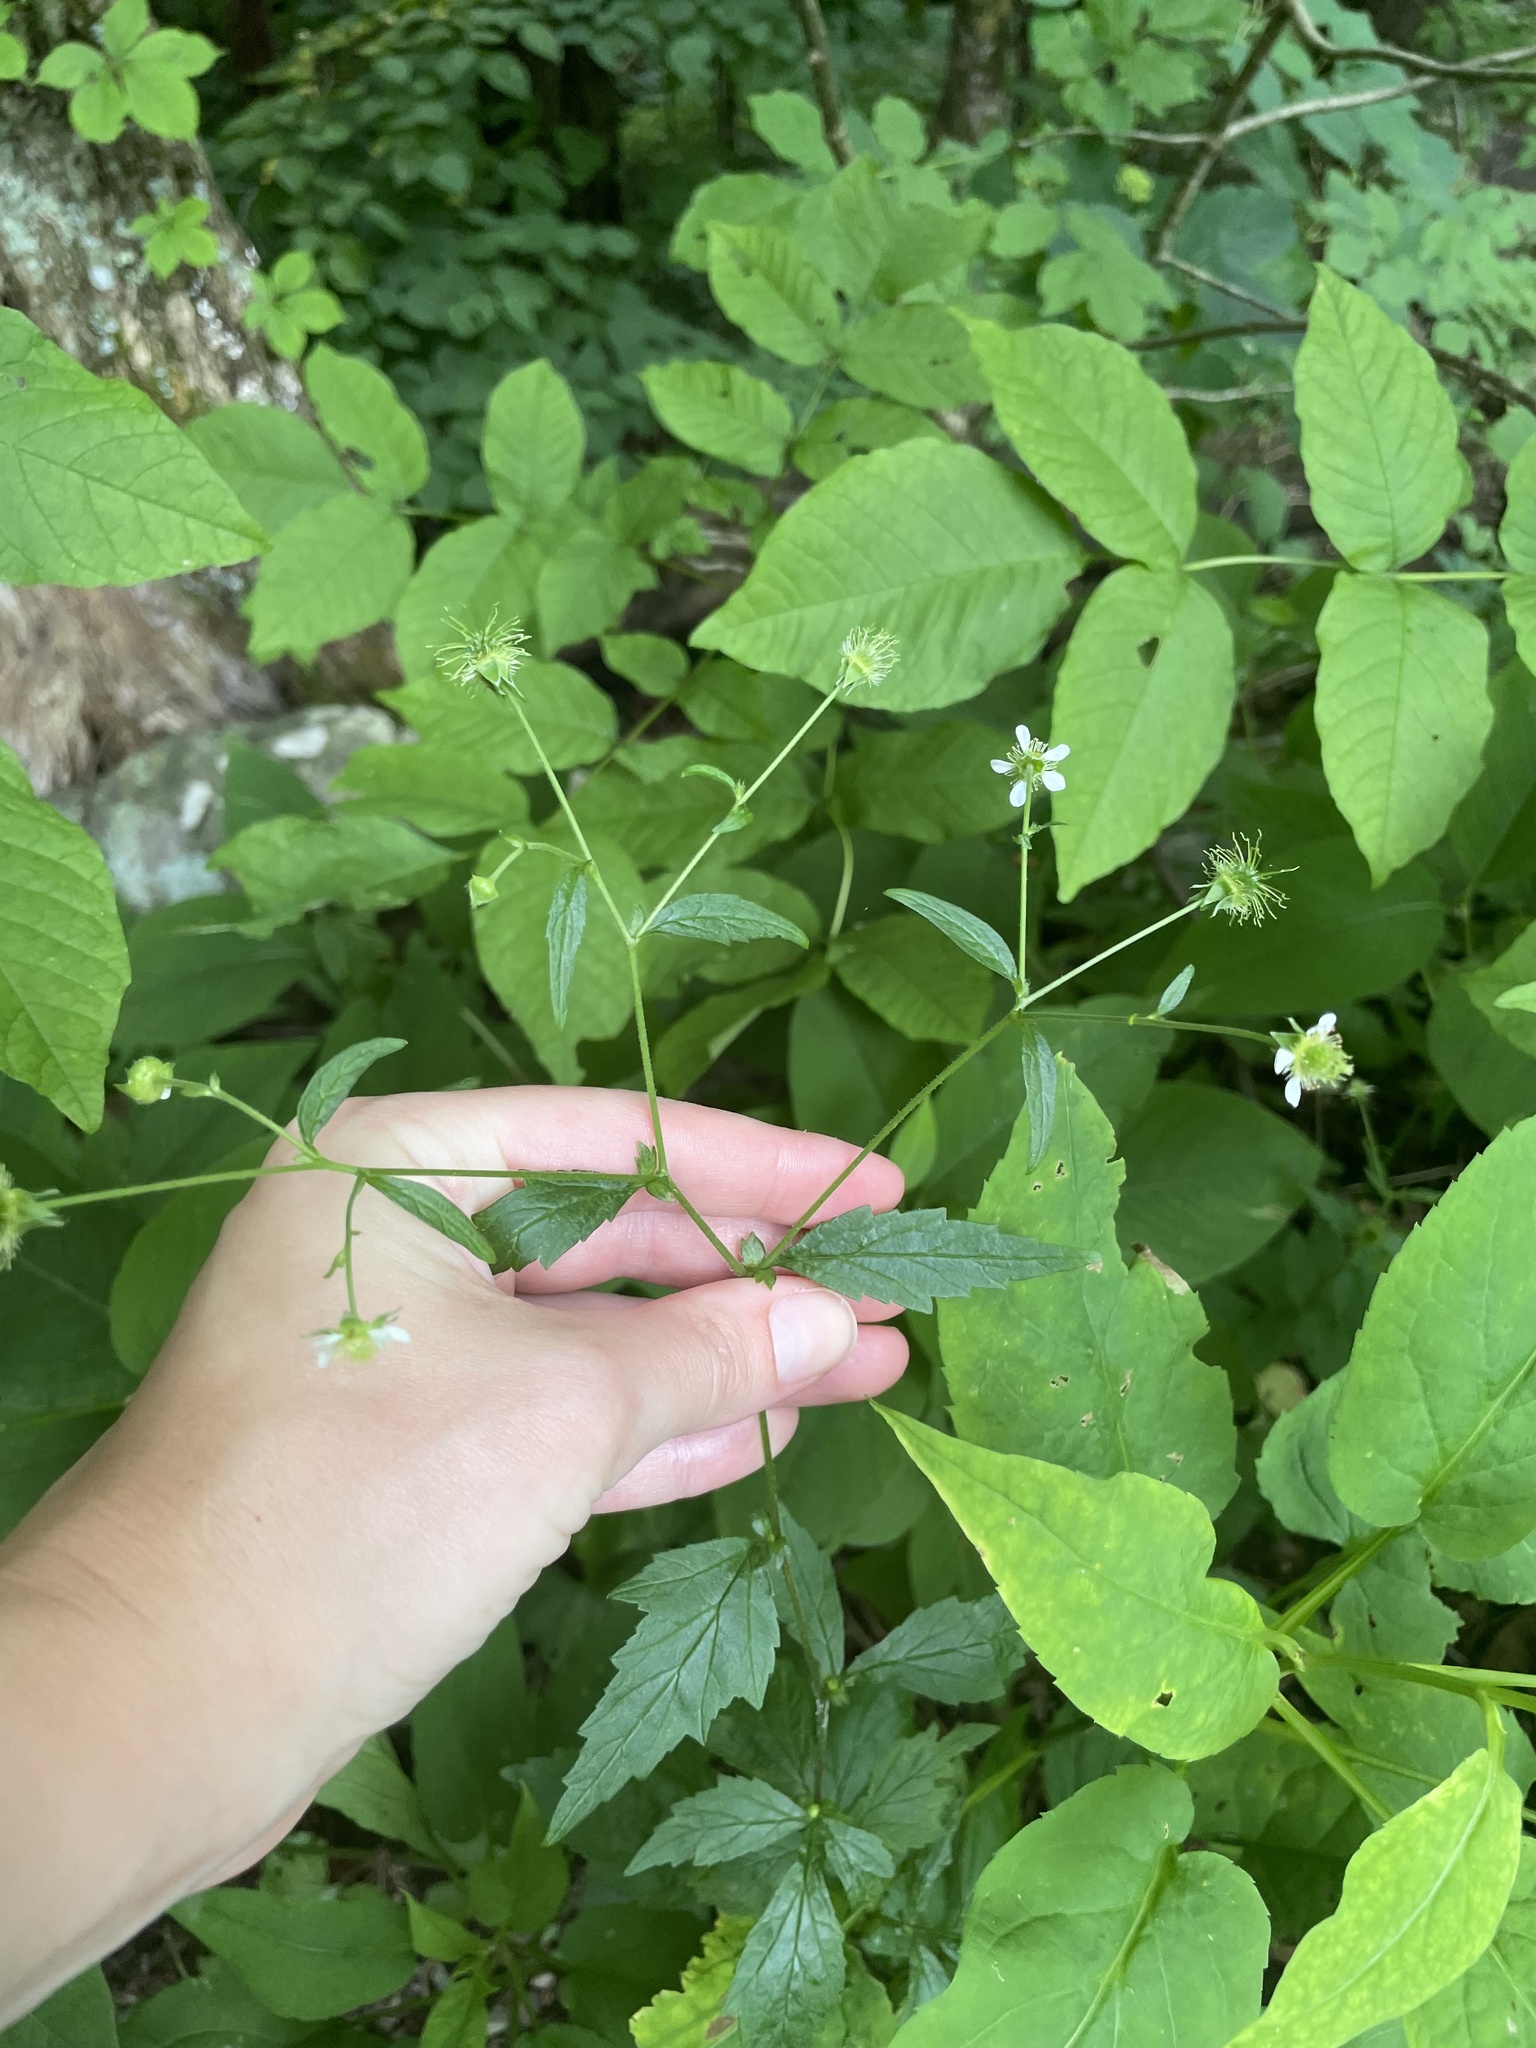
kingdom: Plantae
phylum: Tracheophyta
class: Magnoliopsida
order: Rosales
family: Rosaceae
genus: Geum
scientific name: Geum canadense
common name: White avens
